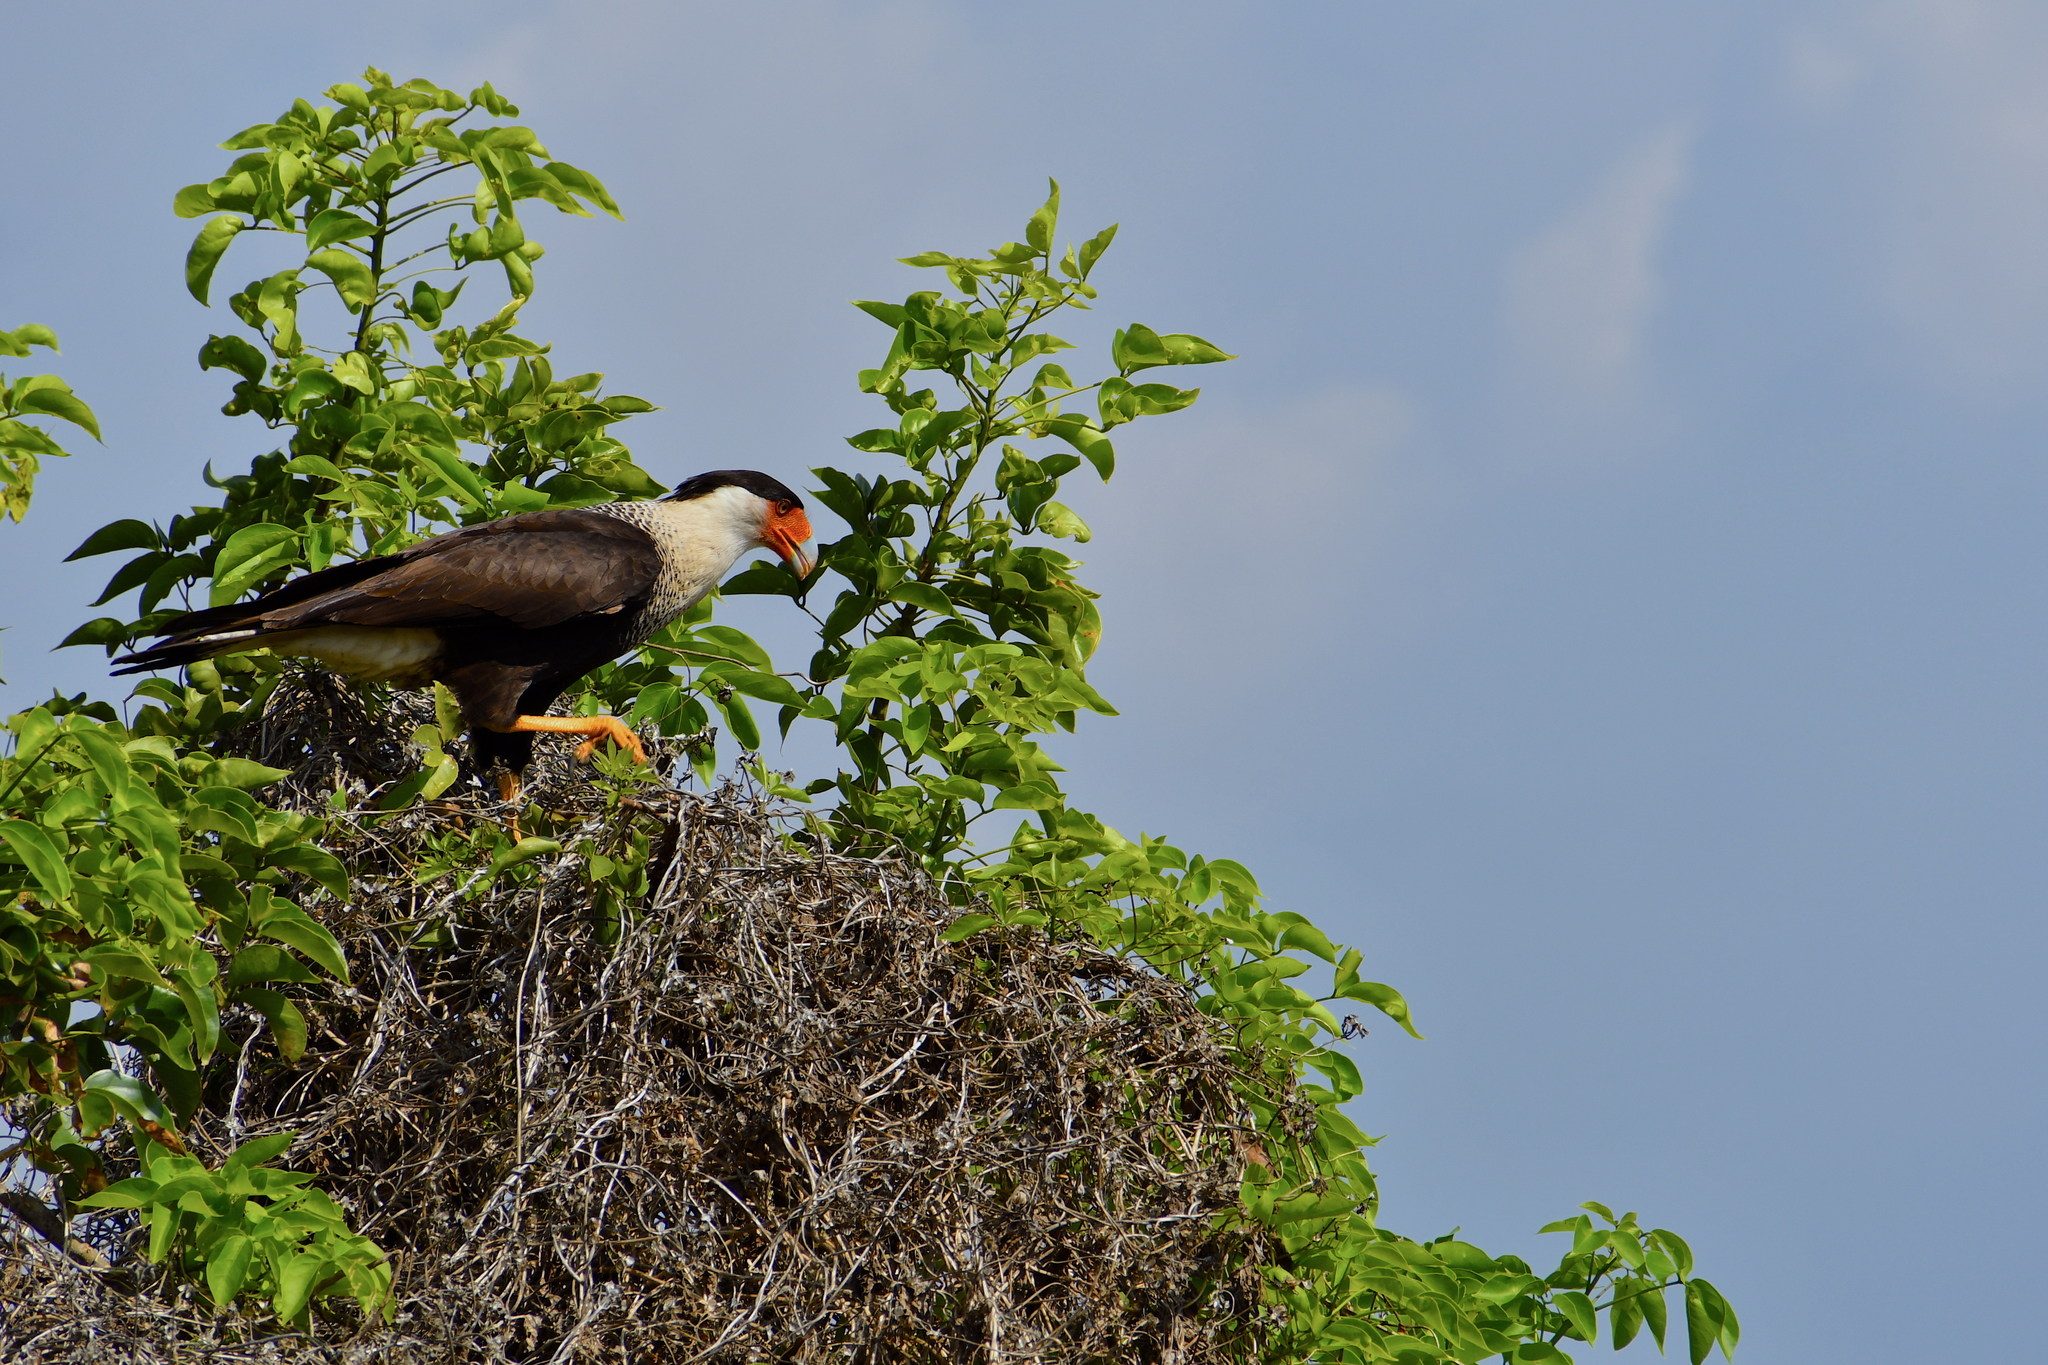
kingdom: Animalia
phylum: Chordata
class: Aves
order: Falconiformes
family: Falconidae
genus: Caracara
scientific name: Caracara plancus
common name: Southern caracara
